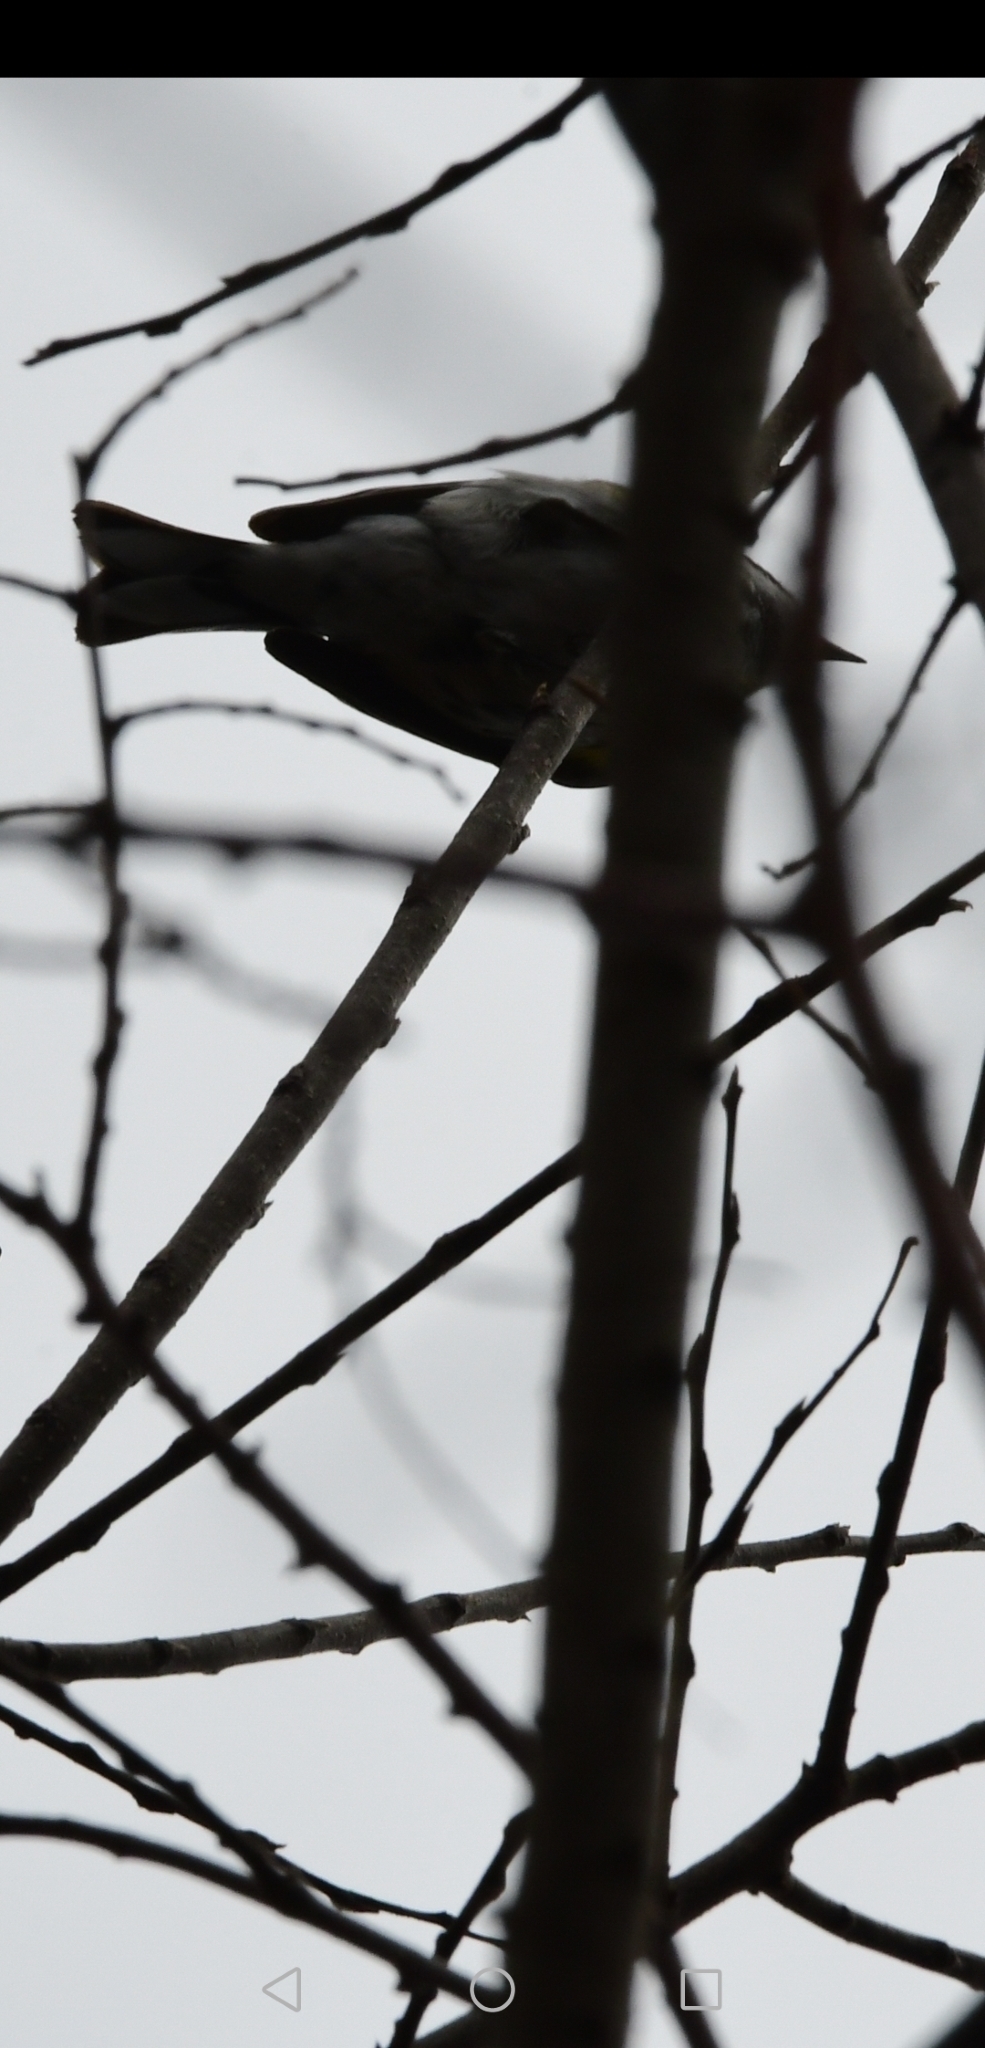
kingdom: Animalia
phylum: Chordata
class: Aves
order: Passeriformes
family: Parulidae
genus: Vermivora
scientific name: Vermivora cyanoptera
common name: Blue-winged warbler
